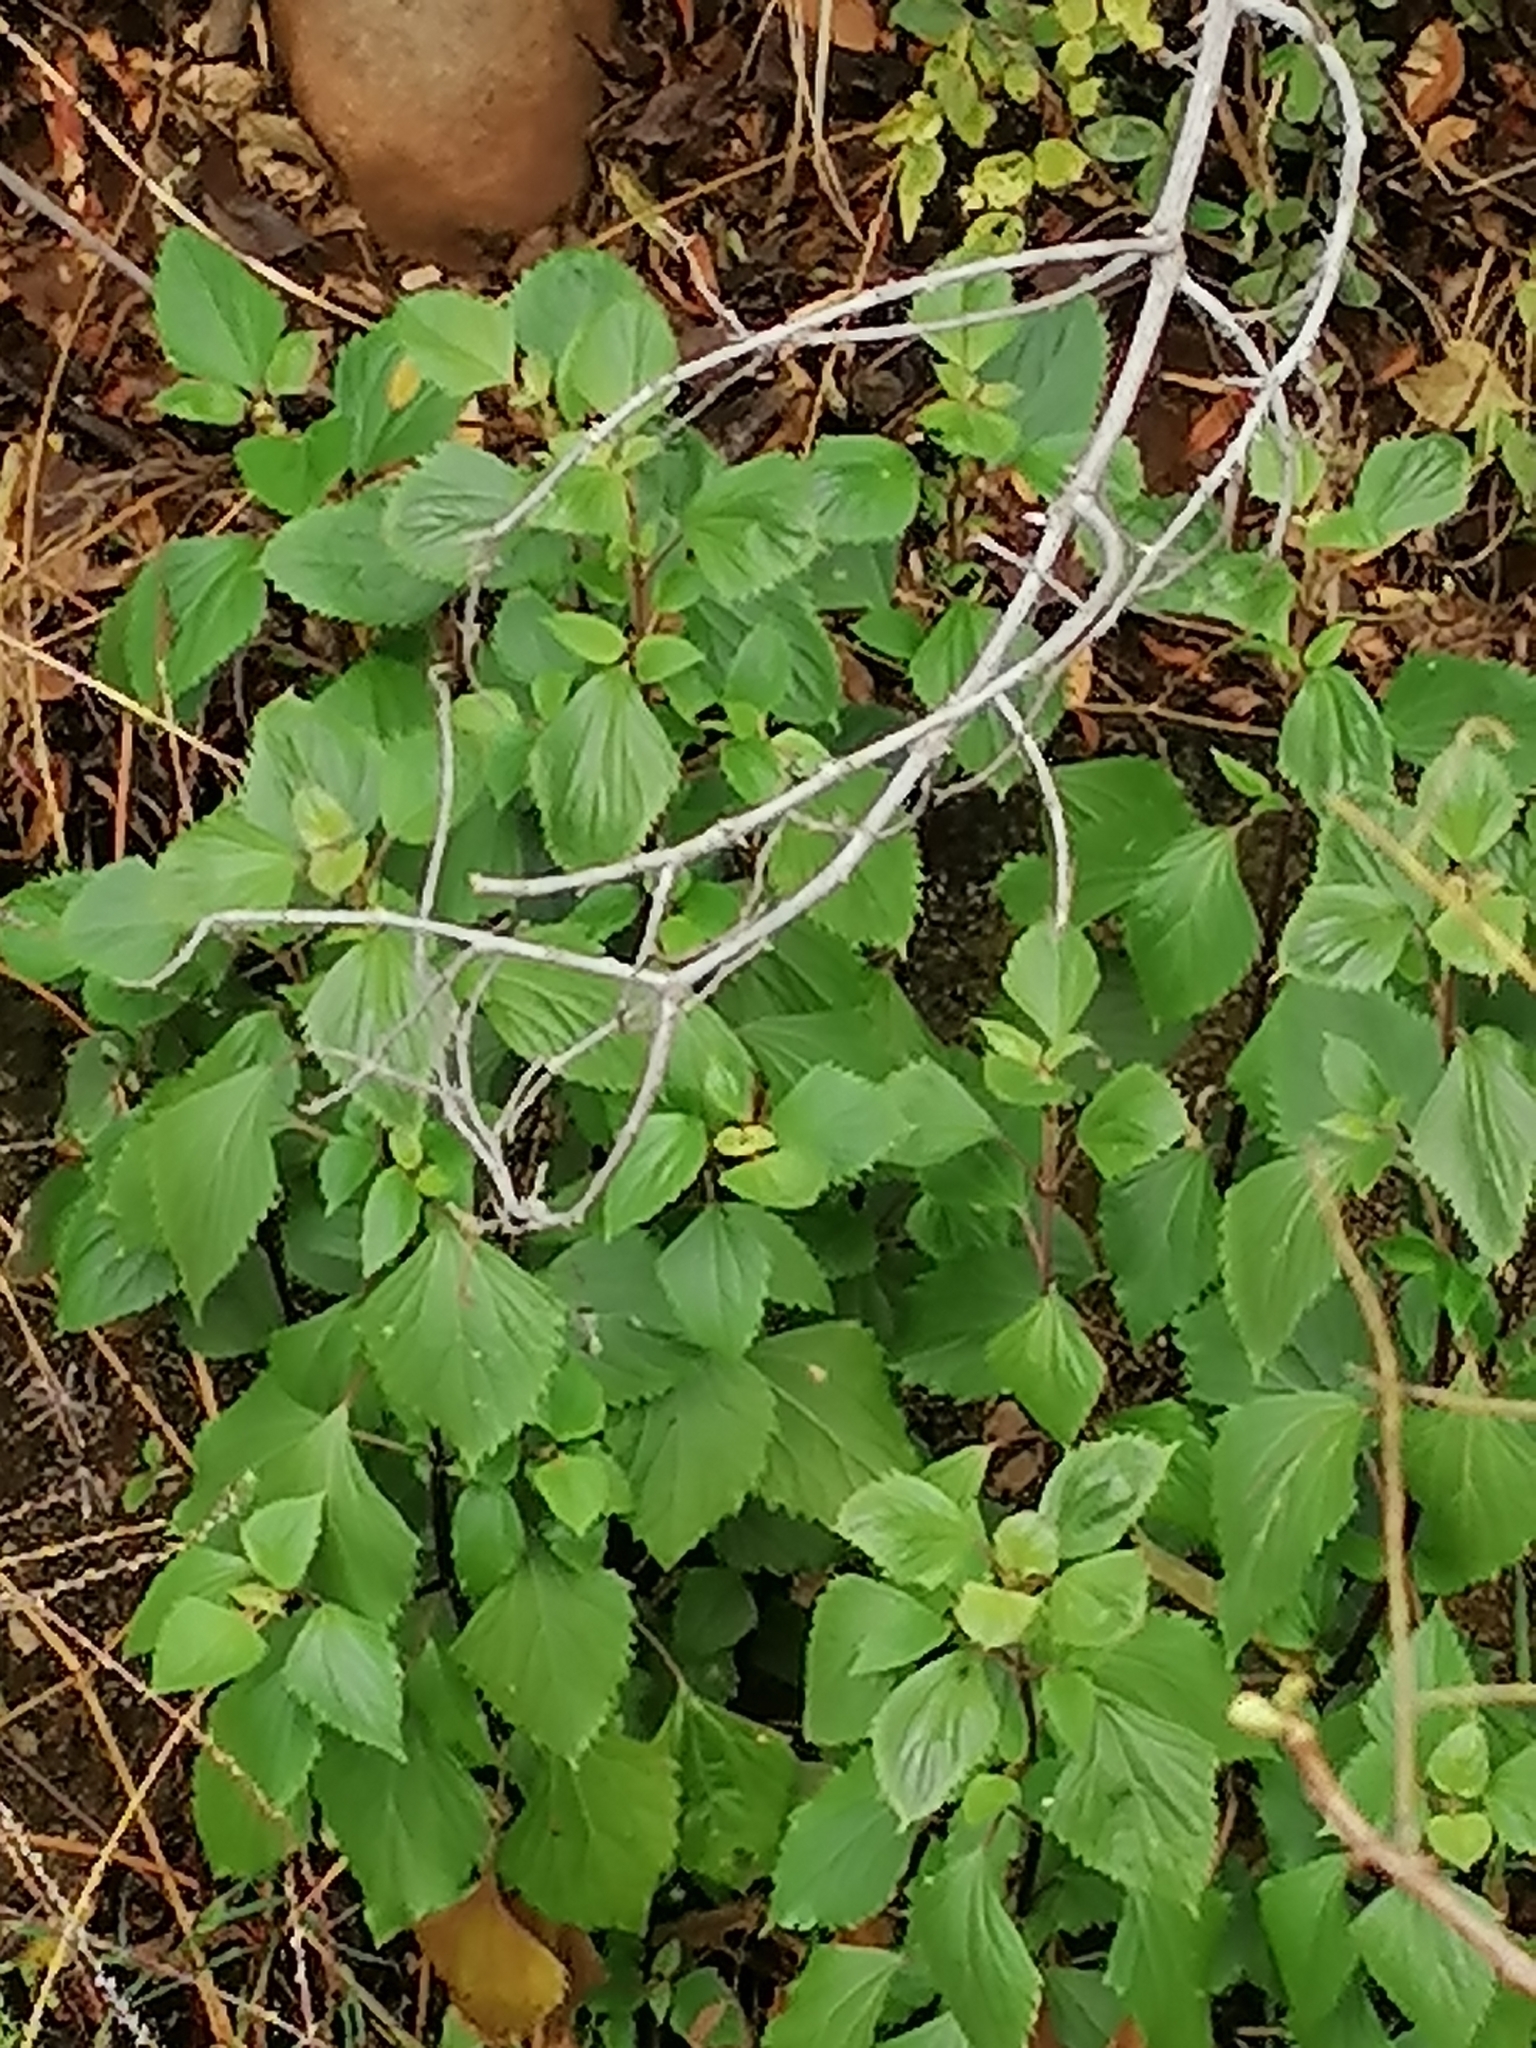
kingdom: Plantae
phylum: Tracheophyta
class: Magnoliopsida
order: Asterales
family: Asteraceae
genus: Ageratina
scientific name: Ageratina adenophora
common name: Sticky snakeroot
